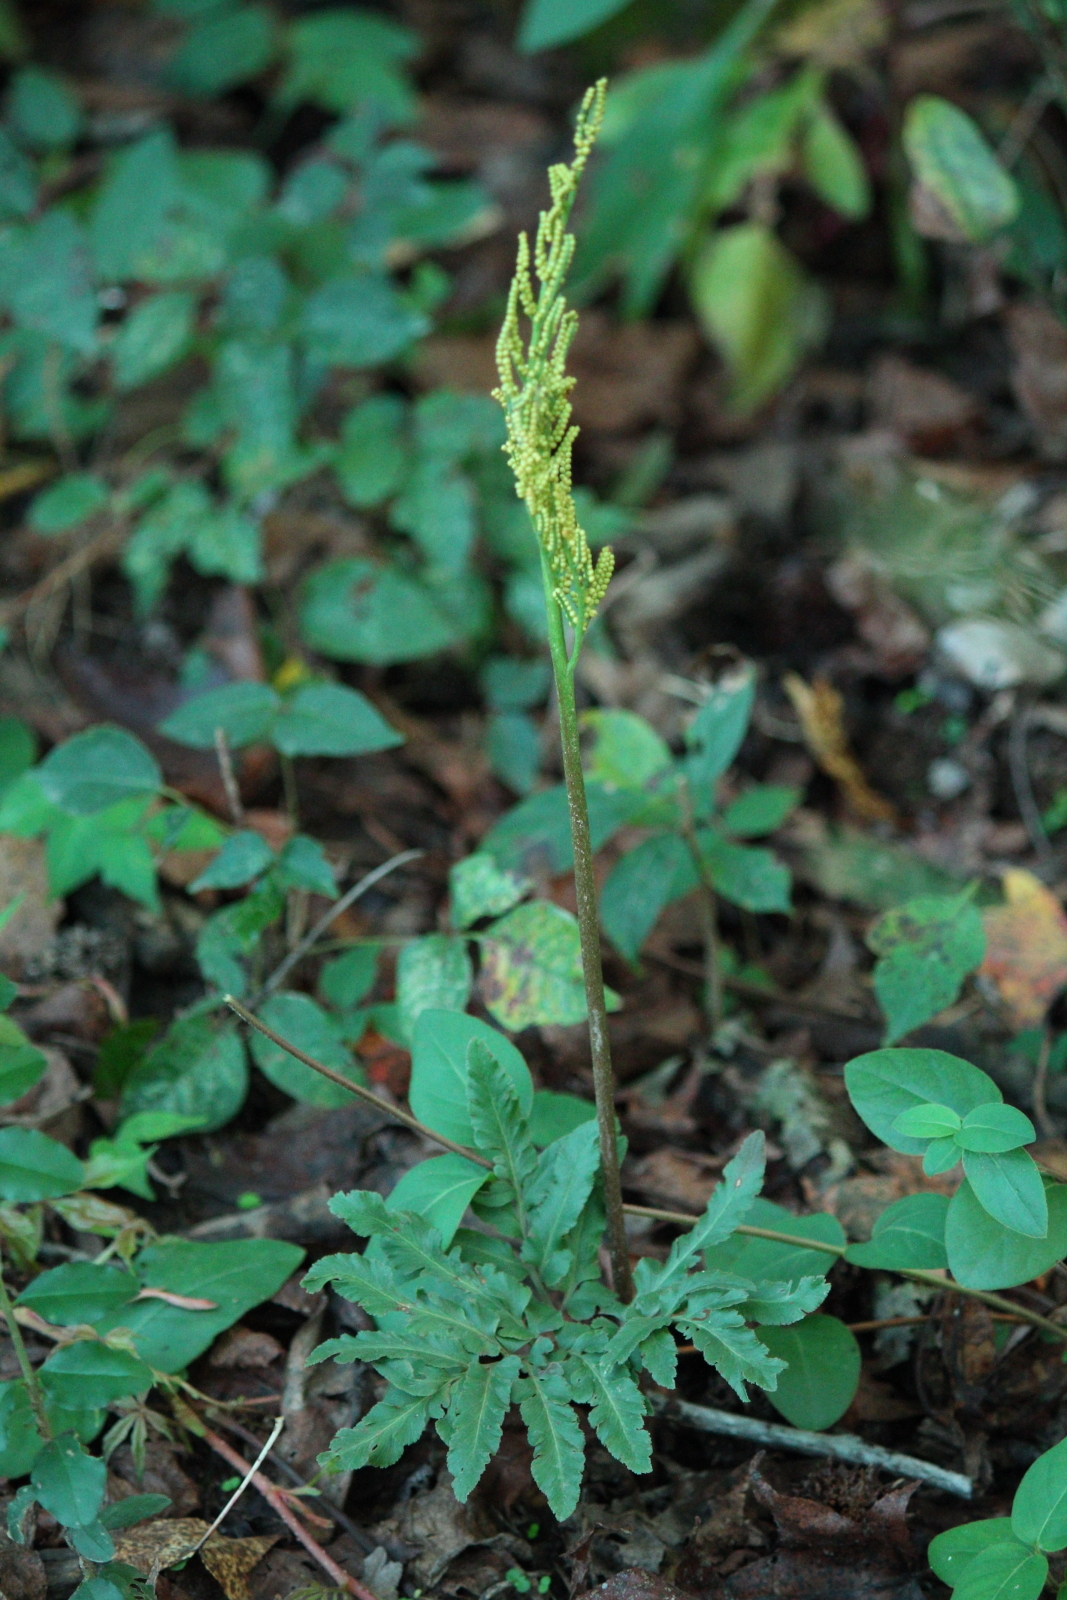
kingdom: Plantae
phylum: Tracheophyta
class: Polypodiopsida
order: Ophioglossales
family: Ophioglossaceae
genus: Sceptridium
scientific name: Sceptridium dissectum
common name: Cut-leaved grapefern
